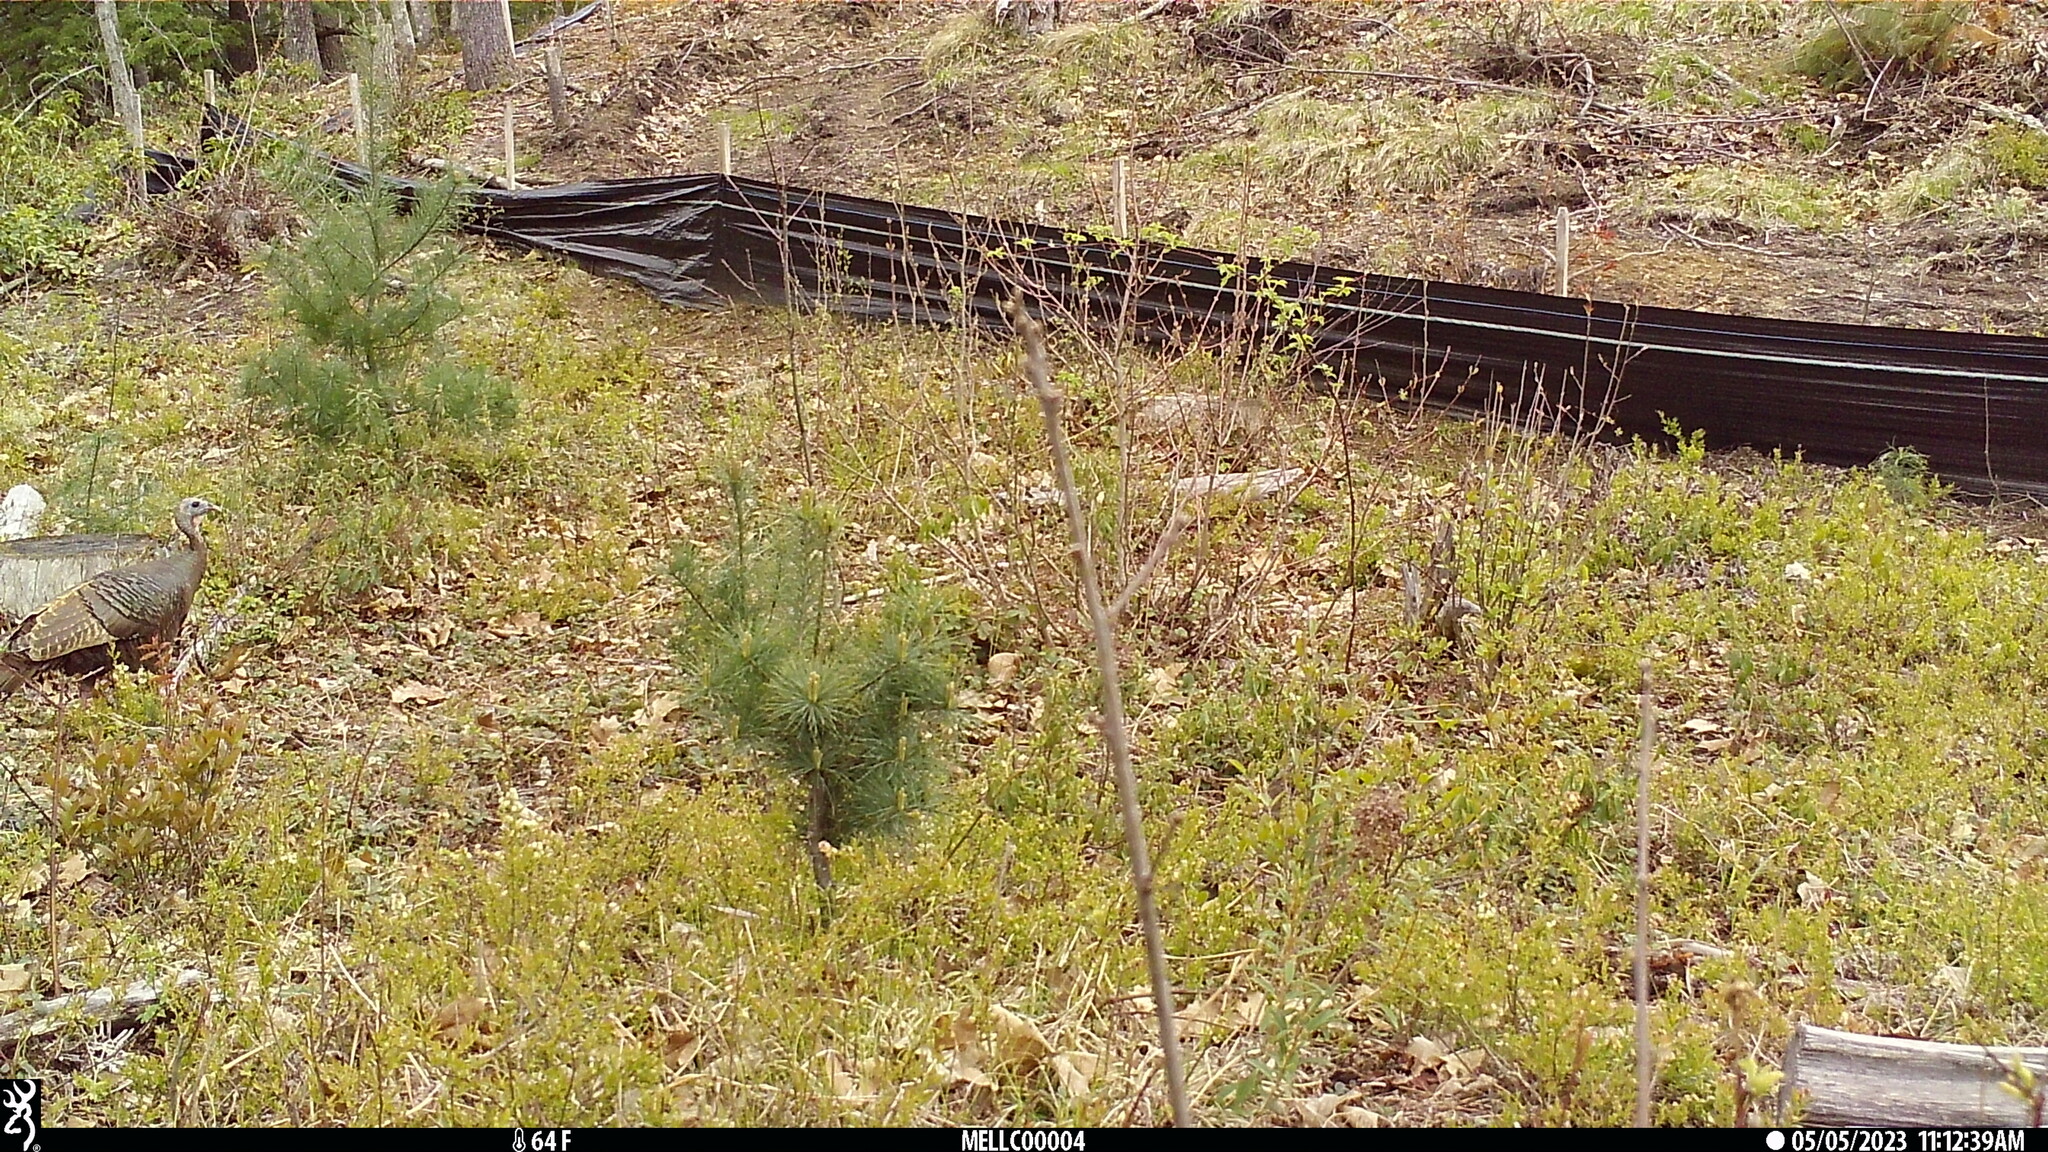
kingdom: Animalia
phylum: Chordata
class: Aves
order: Galliformes
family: Phasianidae
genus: Meleagris
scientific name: Meleagris gallopavo
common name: Wild turkey
